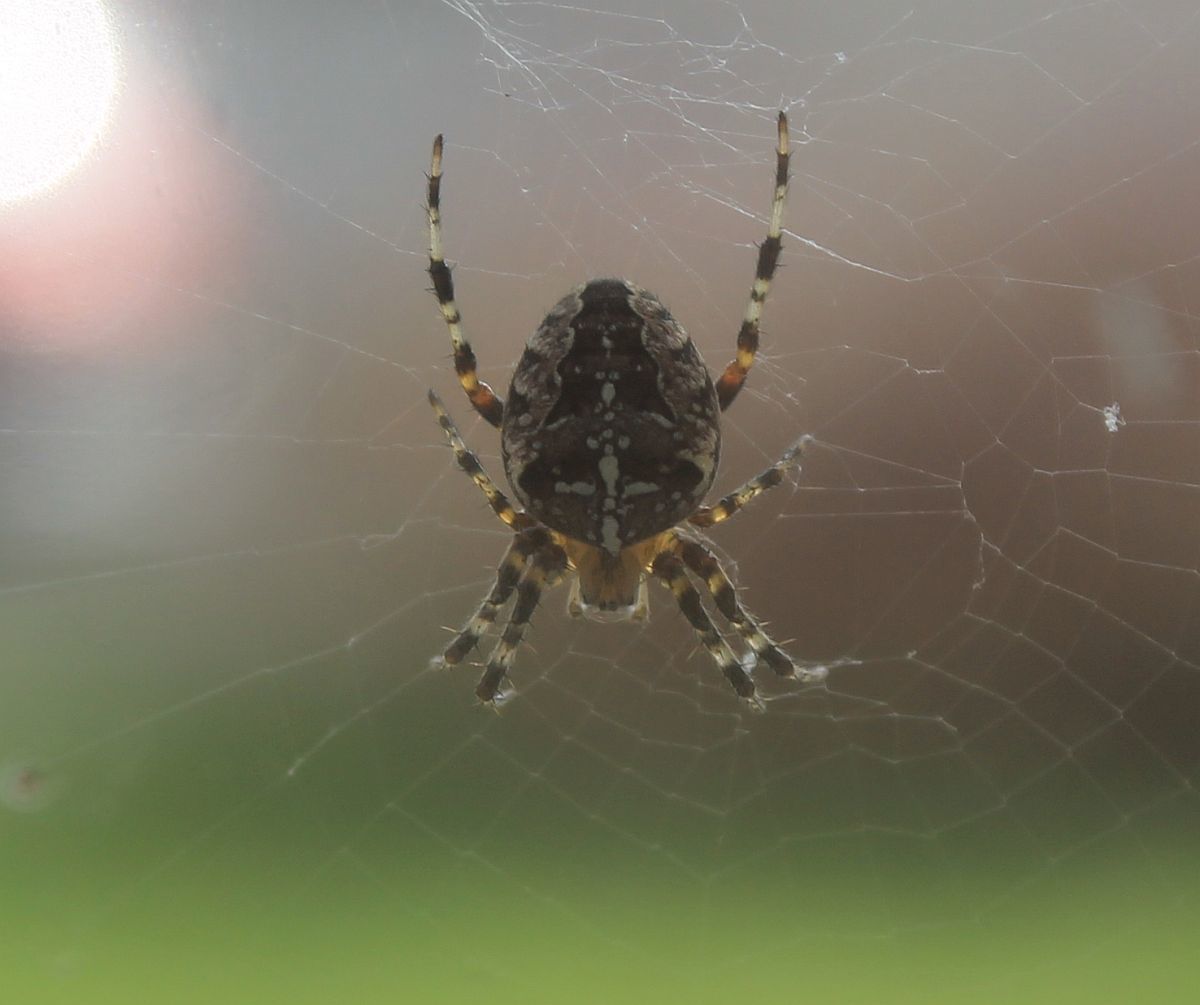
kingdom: Animalia
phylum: Arthropoda
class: Arachnida
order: Araneae
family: Araneidae
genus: Araneus
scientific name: Araneus diadematus
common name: Cross orbweaver
